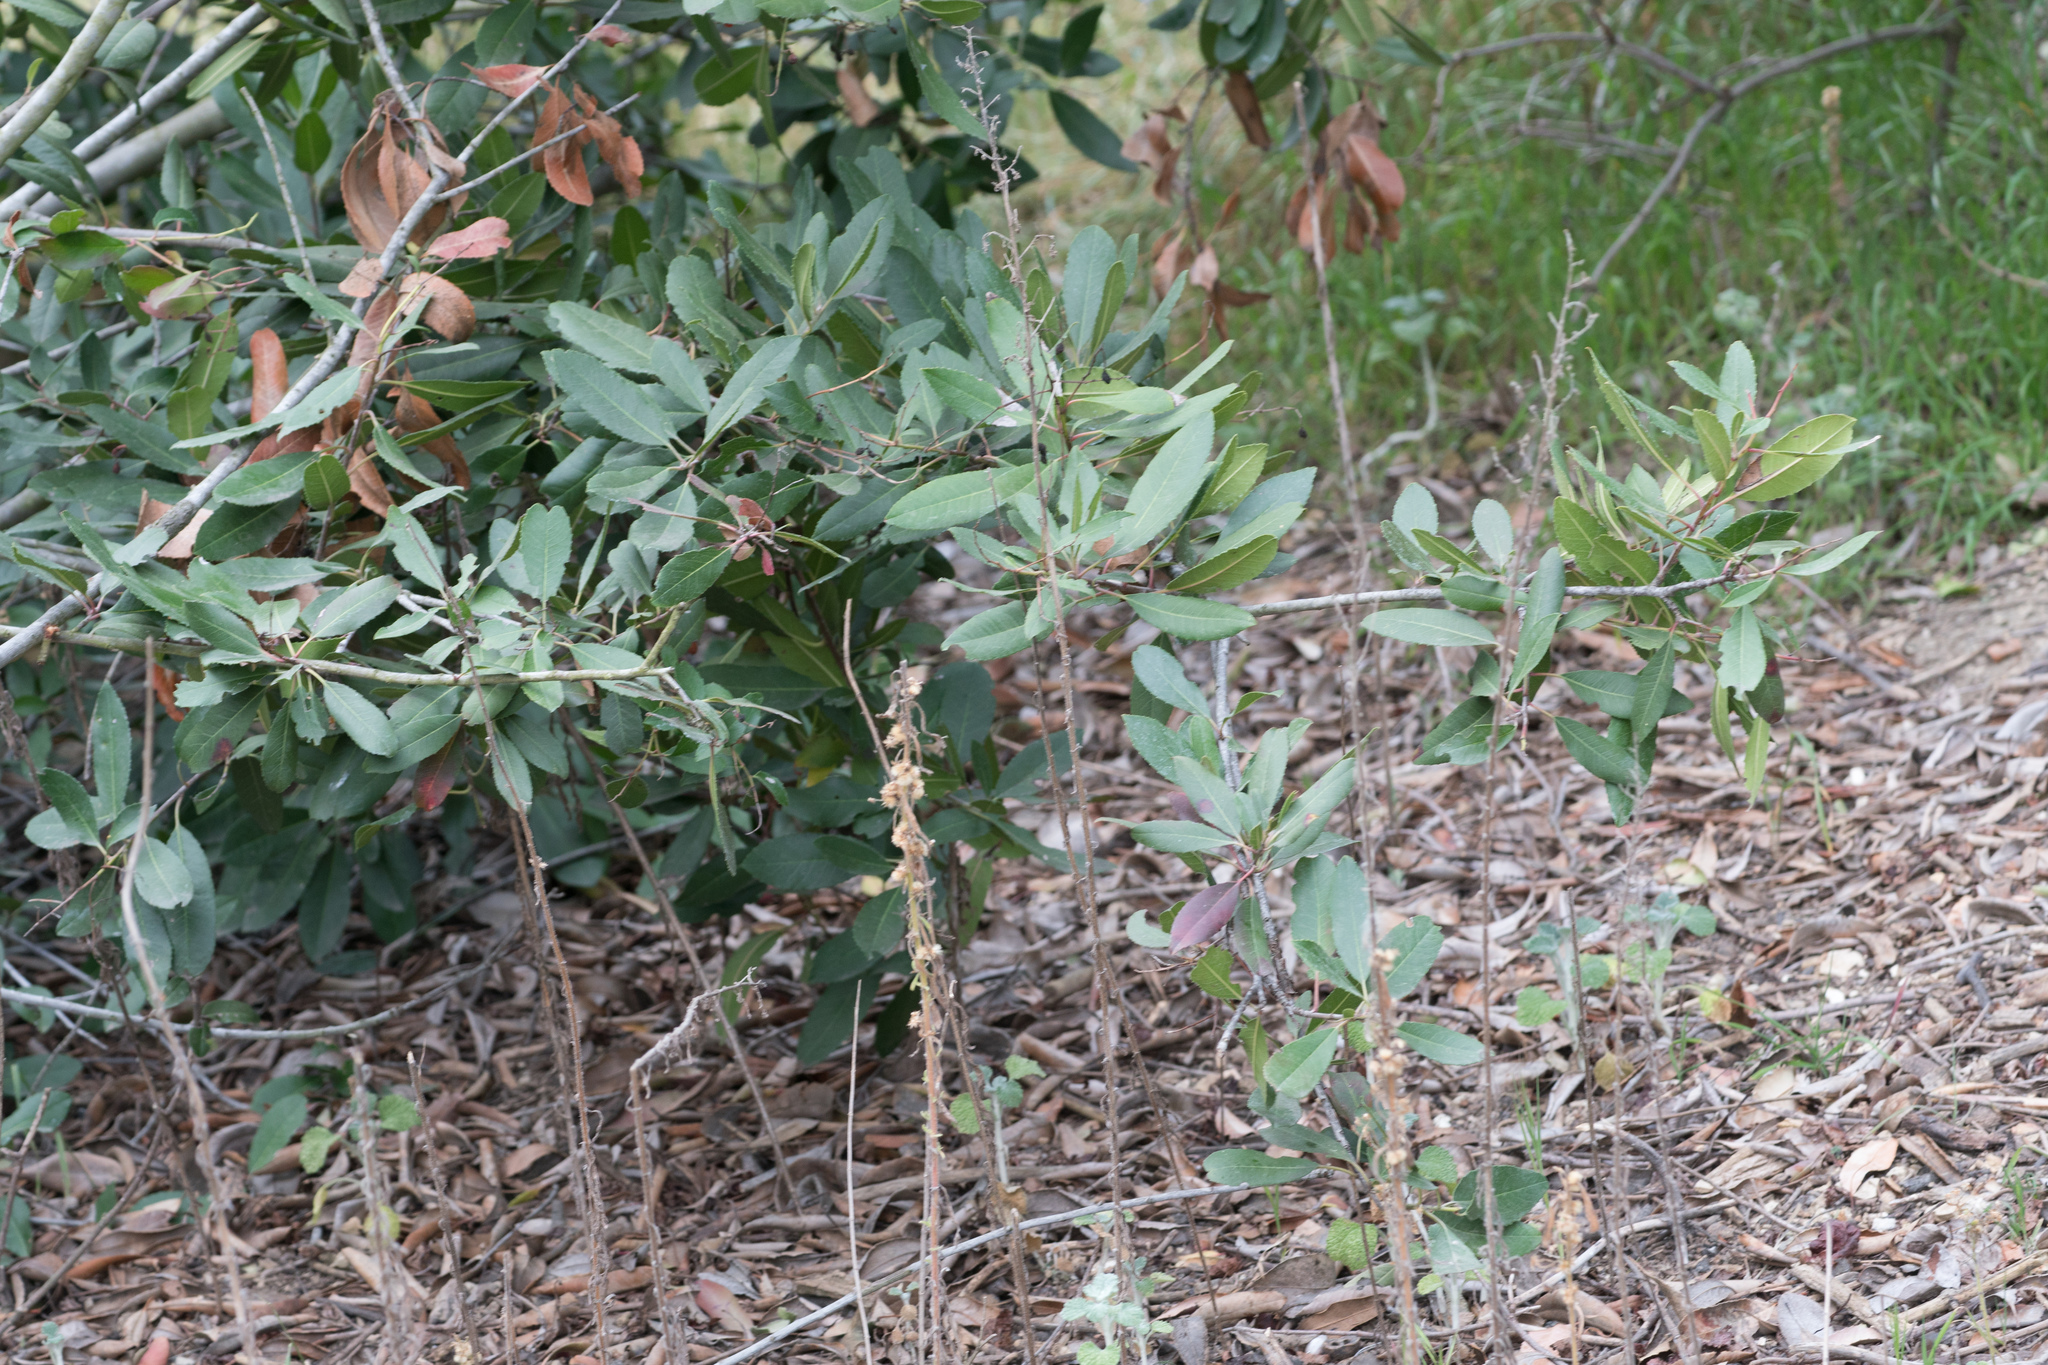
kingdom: Plantae
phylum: Tracheophyta
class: Magnoliopsida
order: Rosales
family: Rosaceae
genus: Heteromeles
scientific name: Heteromeles arbutifolia
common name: California-holly
